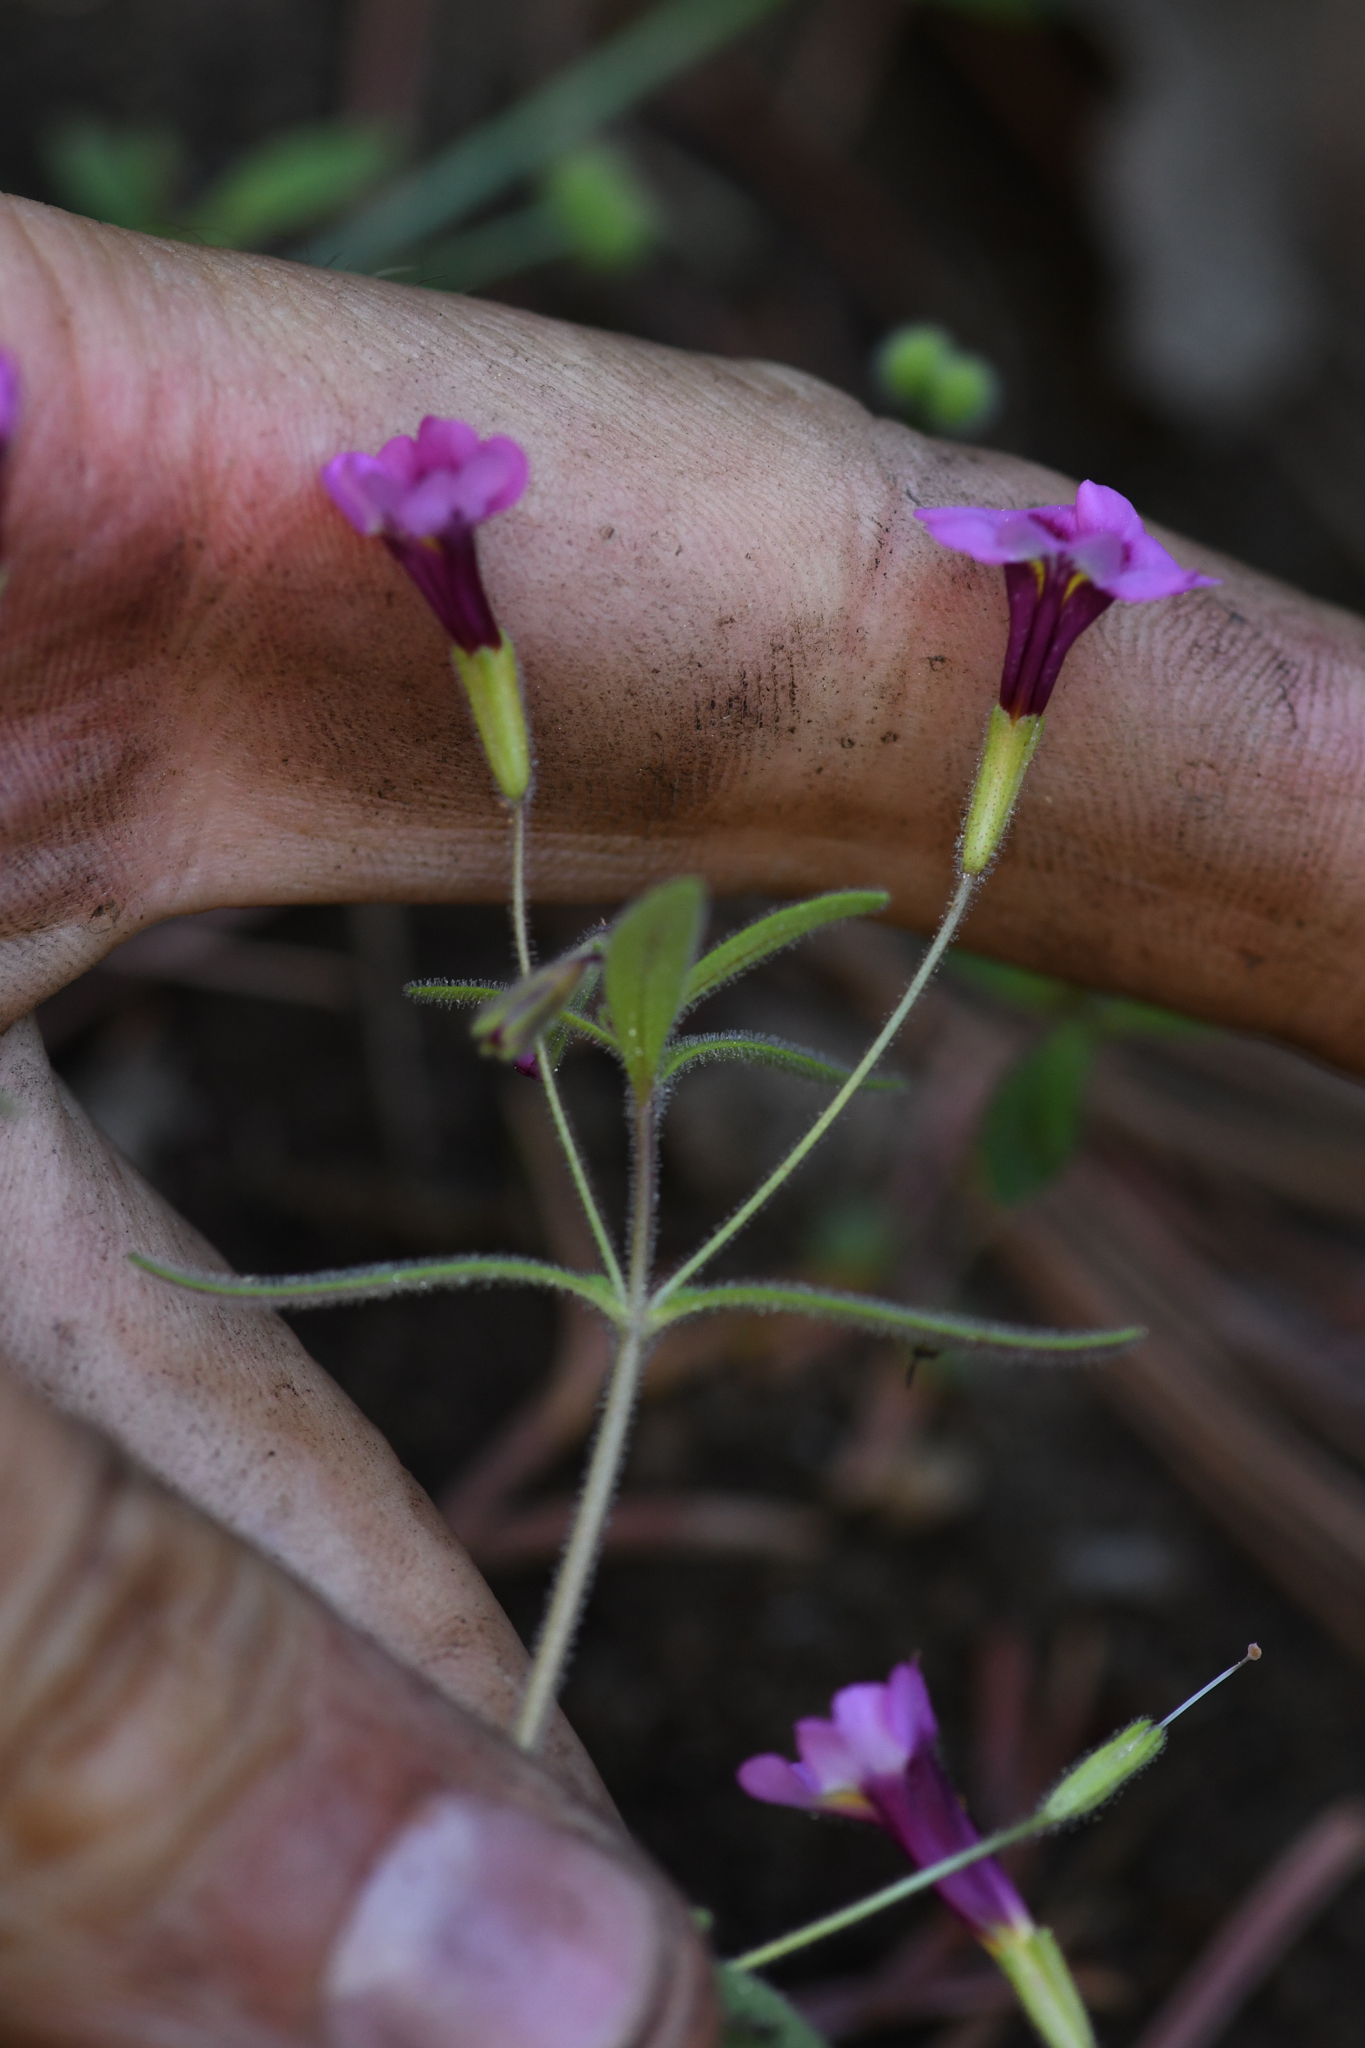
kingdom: Plantae
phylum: Tracheophyta
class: Magnoliopsida
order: Lamiales
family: Phrymaceae
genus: Erythranthe
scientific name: Erythranthe sierrae
